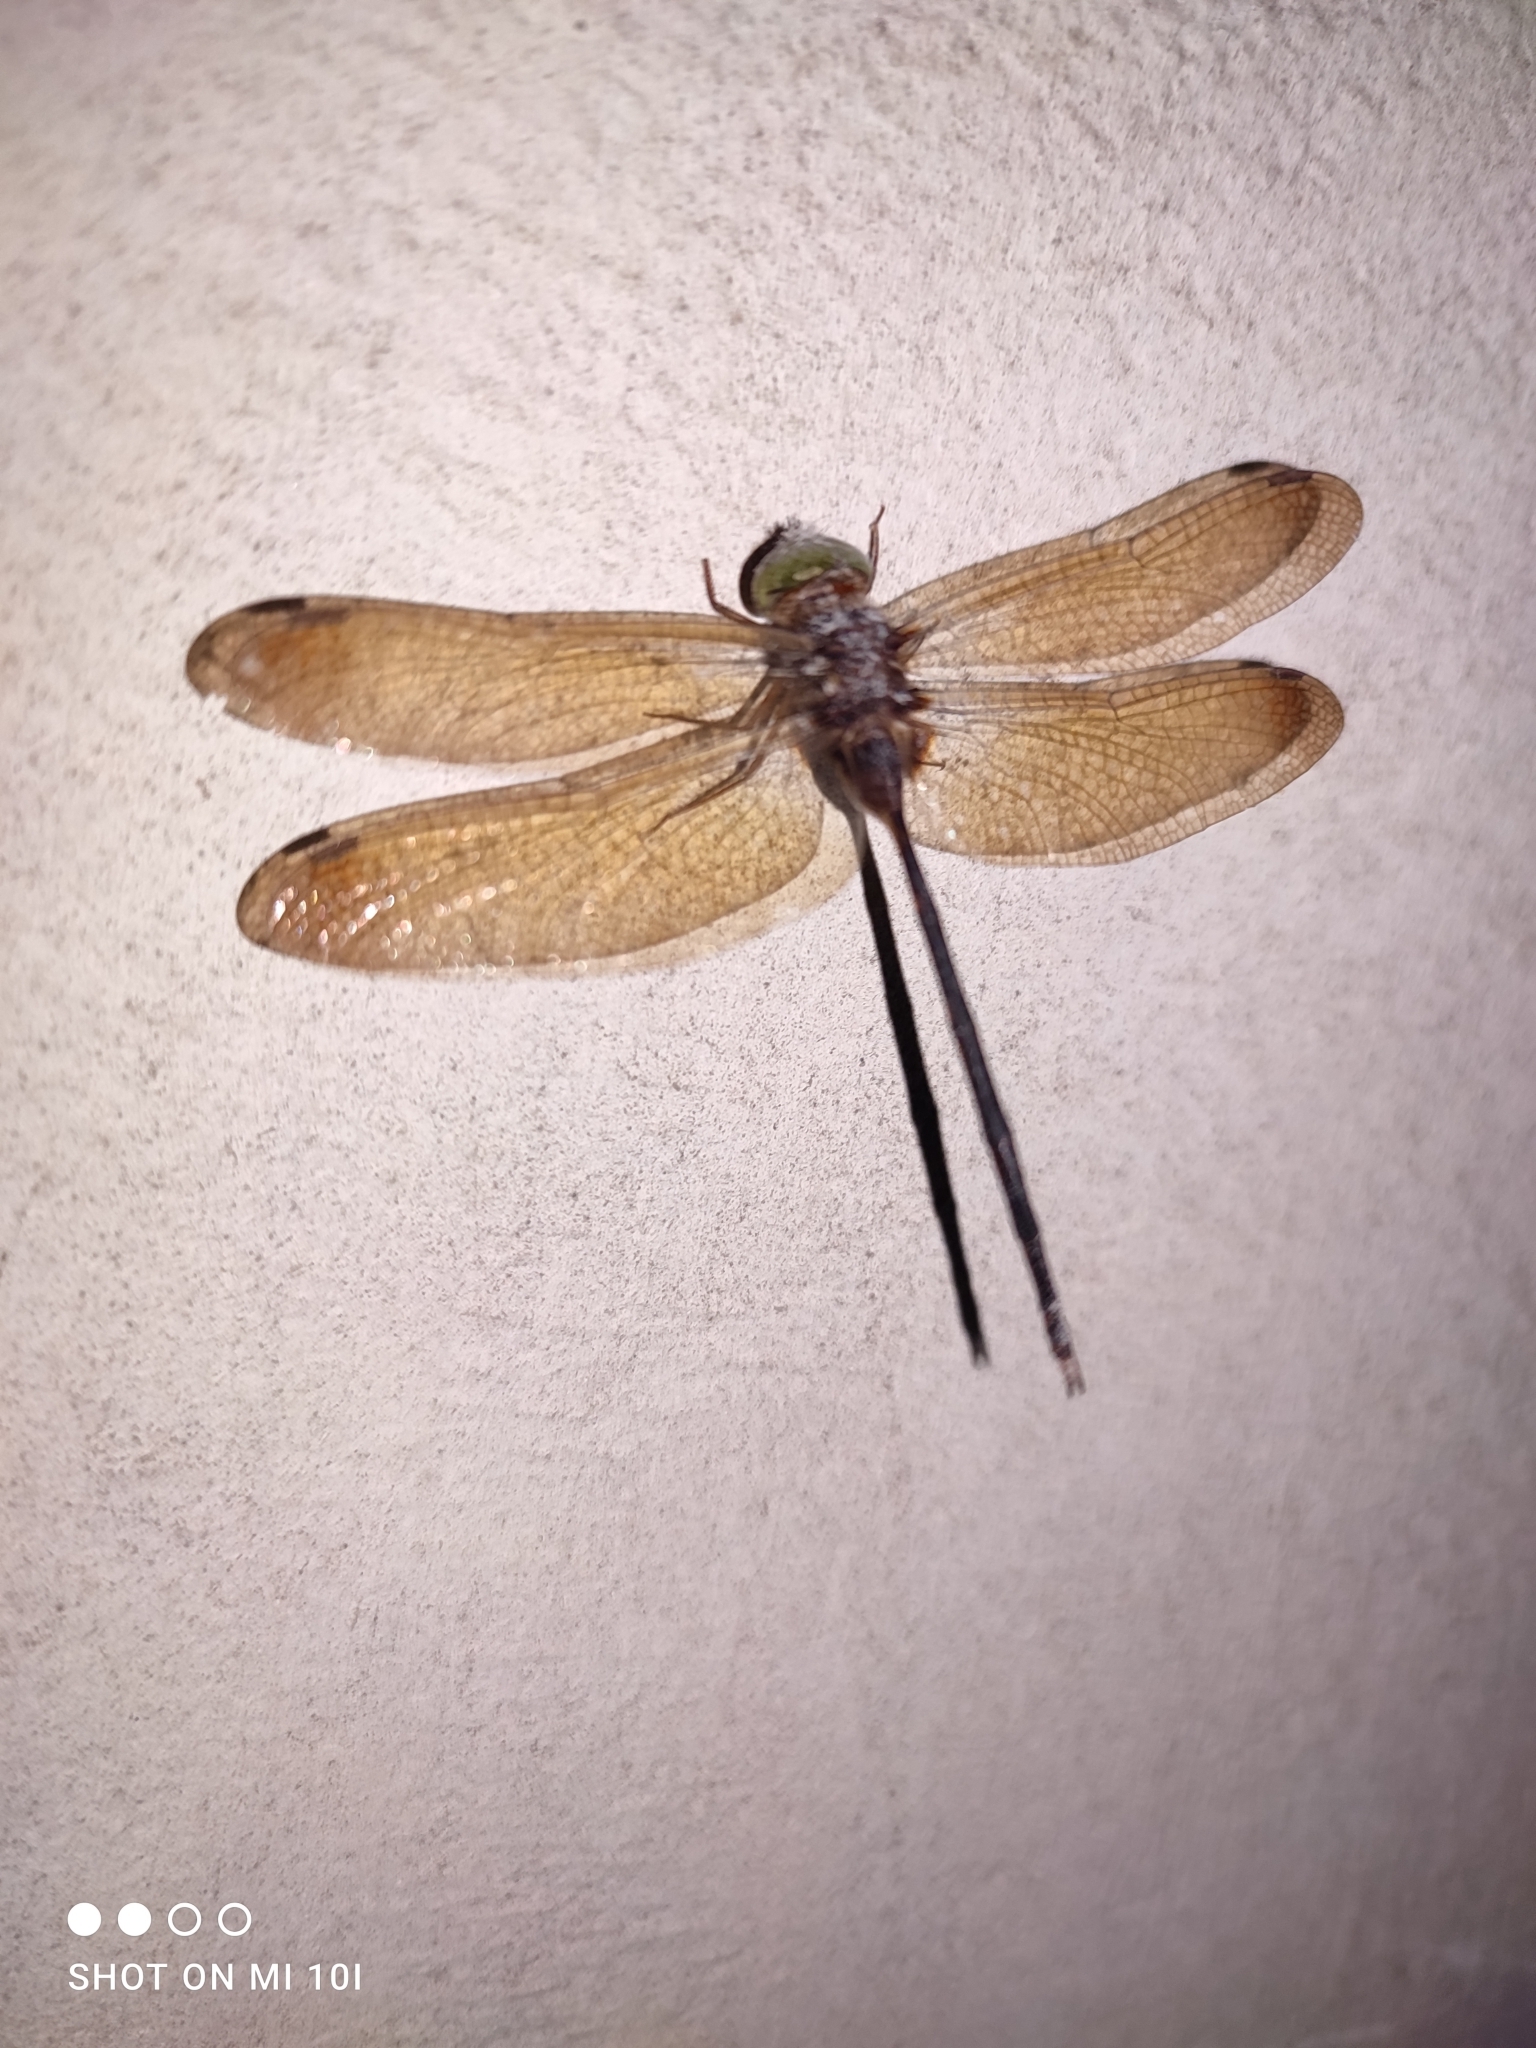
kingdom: Animalia
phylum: Arthropoda
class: Insecta
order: Odonata
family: Libellulidae
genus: Zyxomma
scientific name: Zyxomma petiolatum
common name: Dingy dusk-darter
